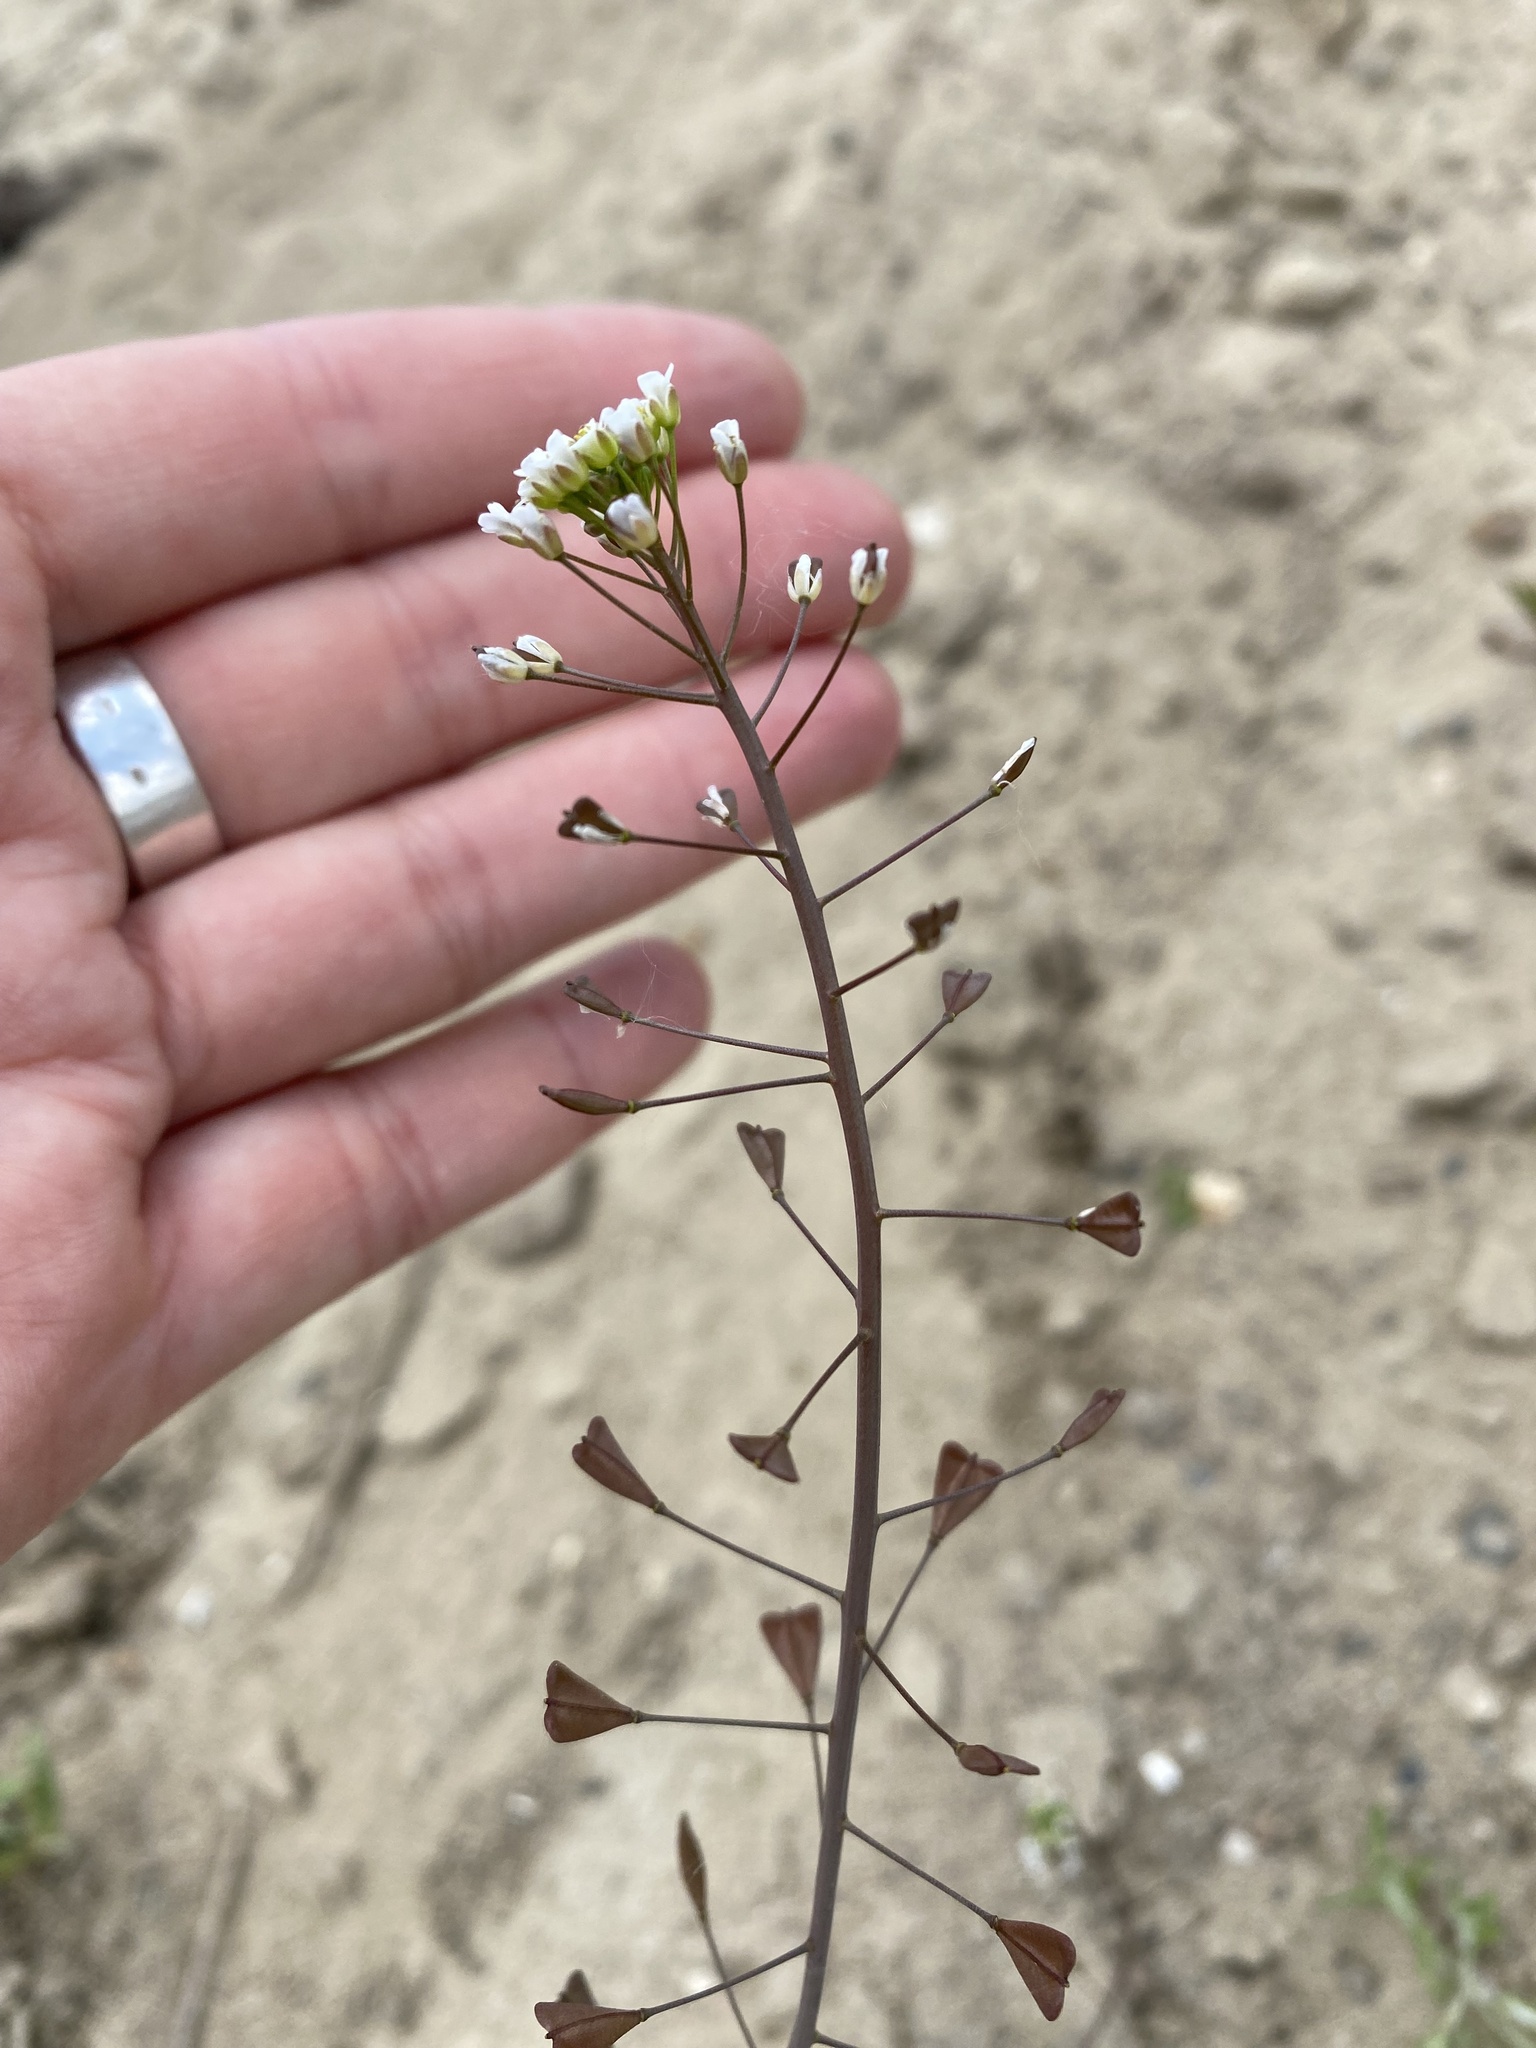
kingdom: Plantae
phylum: Tracheophyta
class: Magnoliopsida
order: Brassicales
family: Brassicaceae
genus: Capsella
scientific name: Capsella bursa-pastoris
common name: Shepherd's purse
